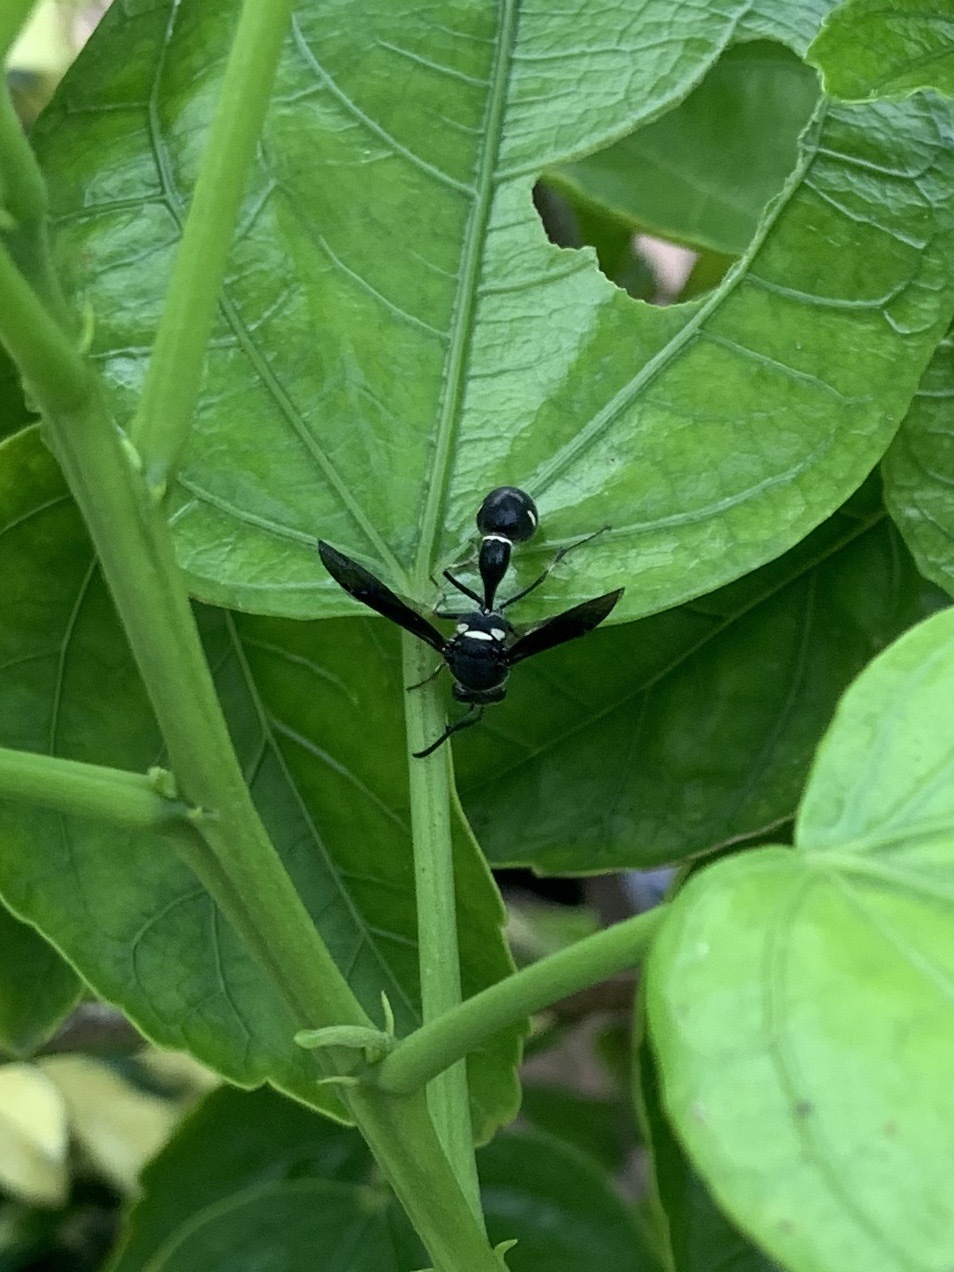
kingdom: Animalia
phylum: Arthropoda
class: Insecta
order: Hymenoptera
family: Vespidae
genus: Eumenes
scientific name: Eumenes fraternus
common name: Fraternal potter wasp
